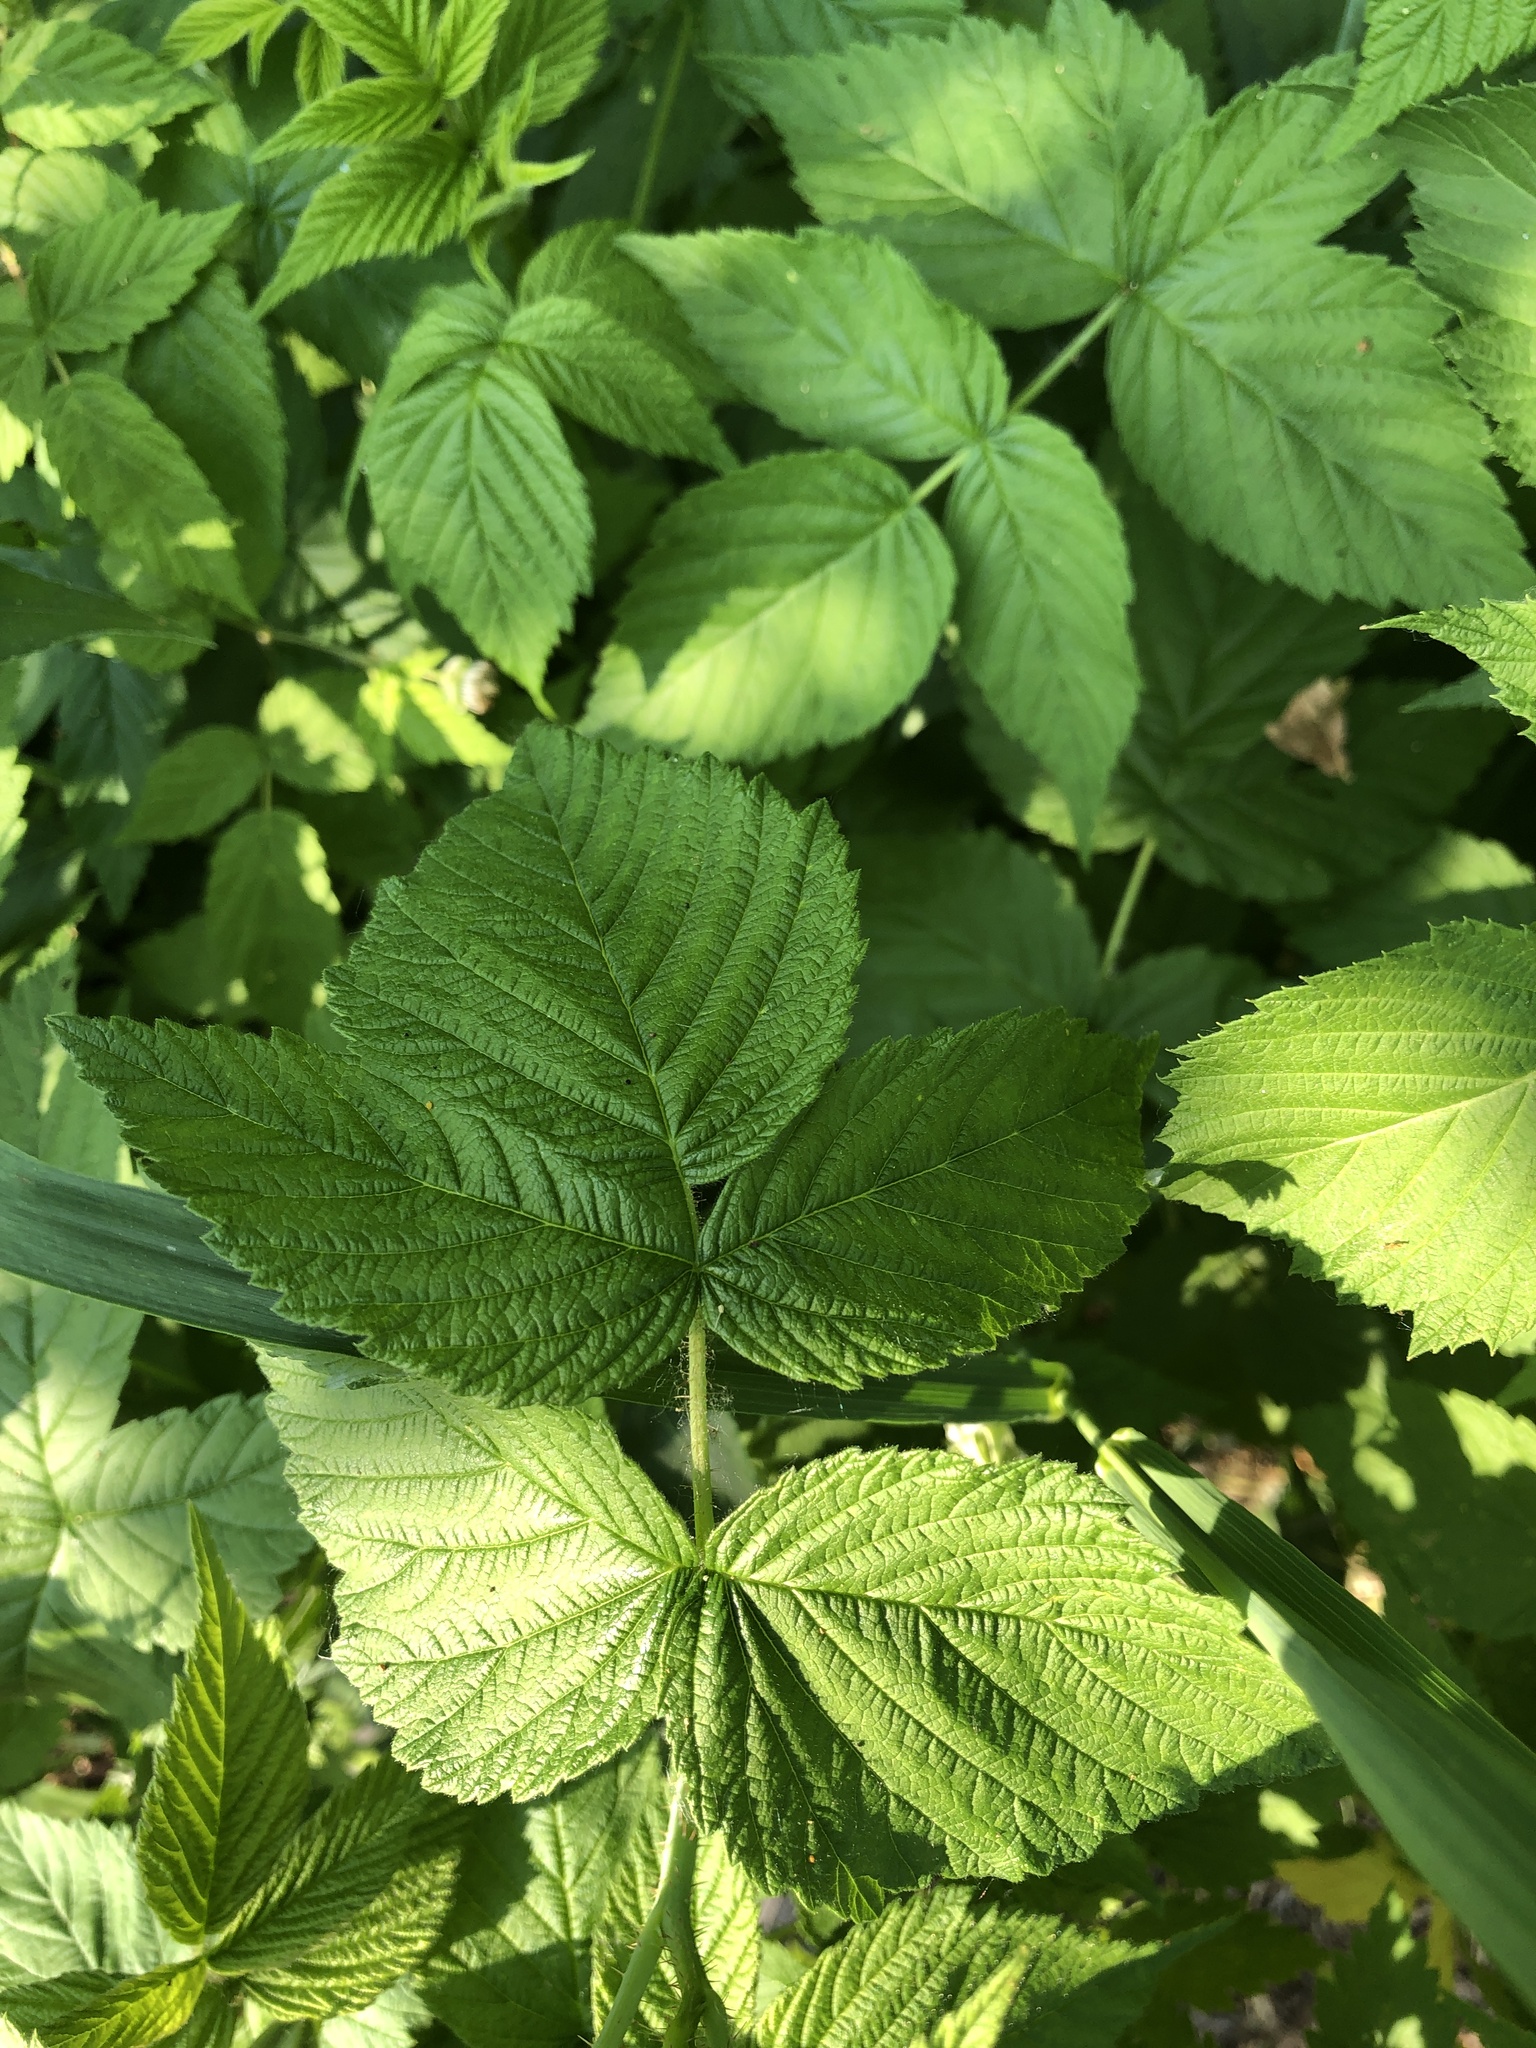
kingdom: Plantae
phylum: Tracheophyta
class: Magnoliopsida
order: Rosales
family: Rosaceae
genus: Rubus
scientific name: Rubus idaeus
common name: Raspberry
